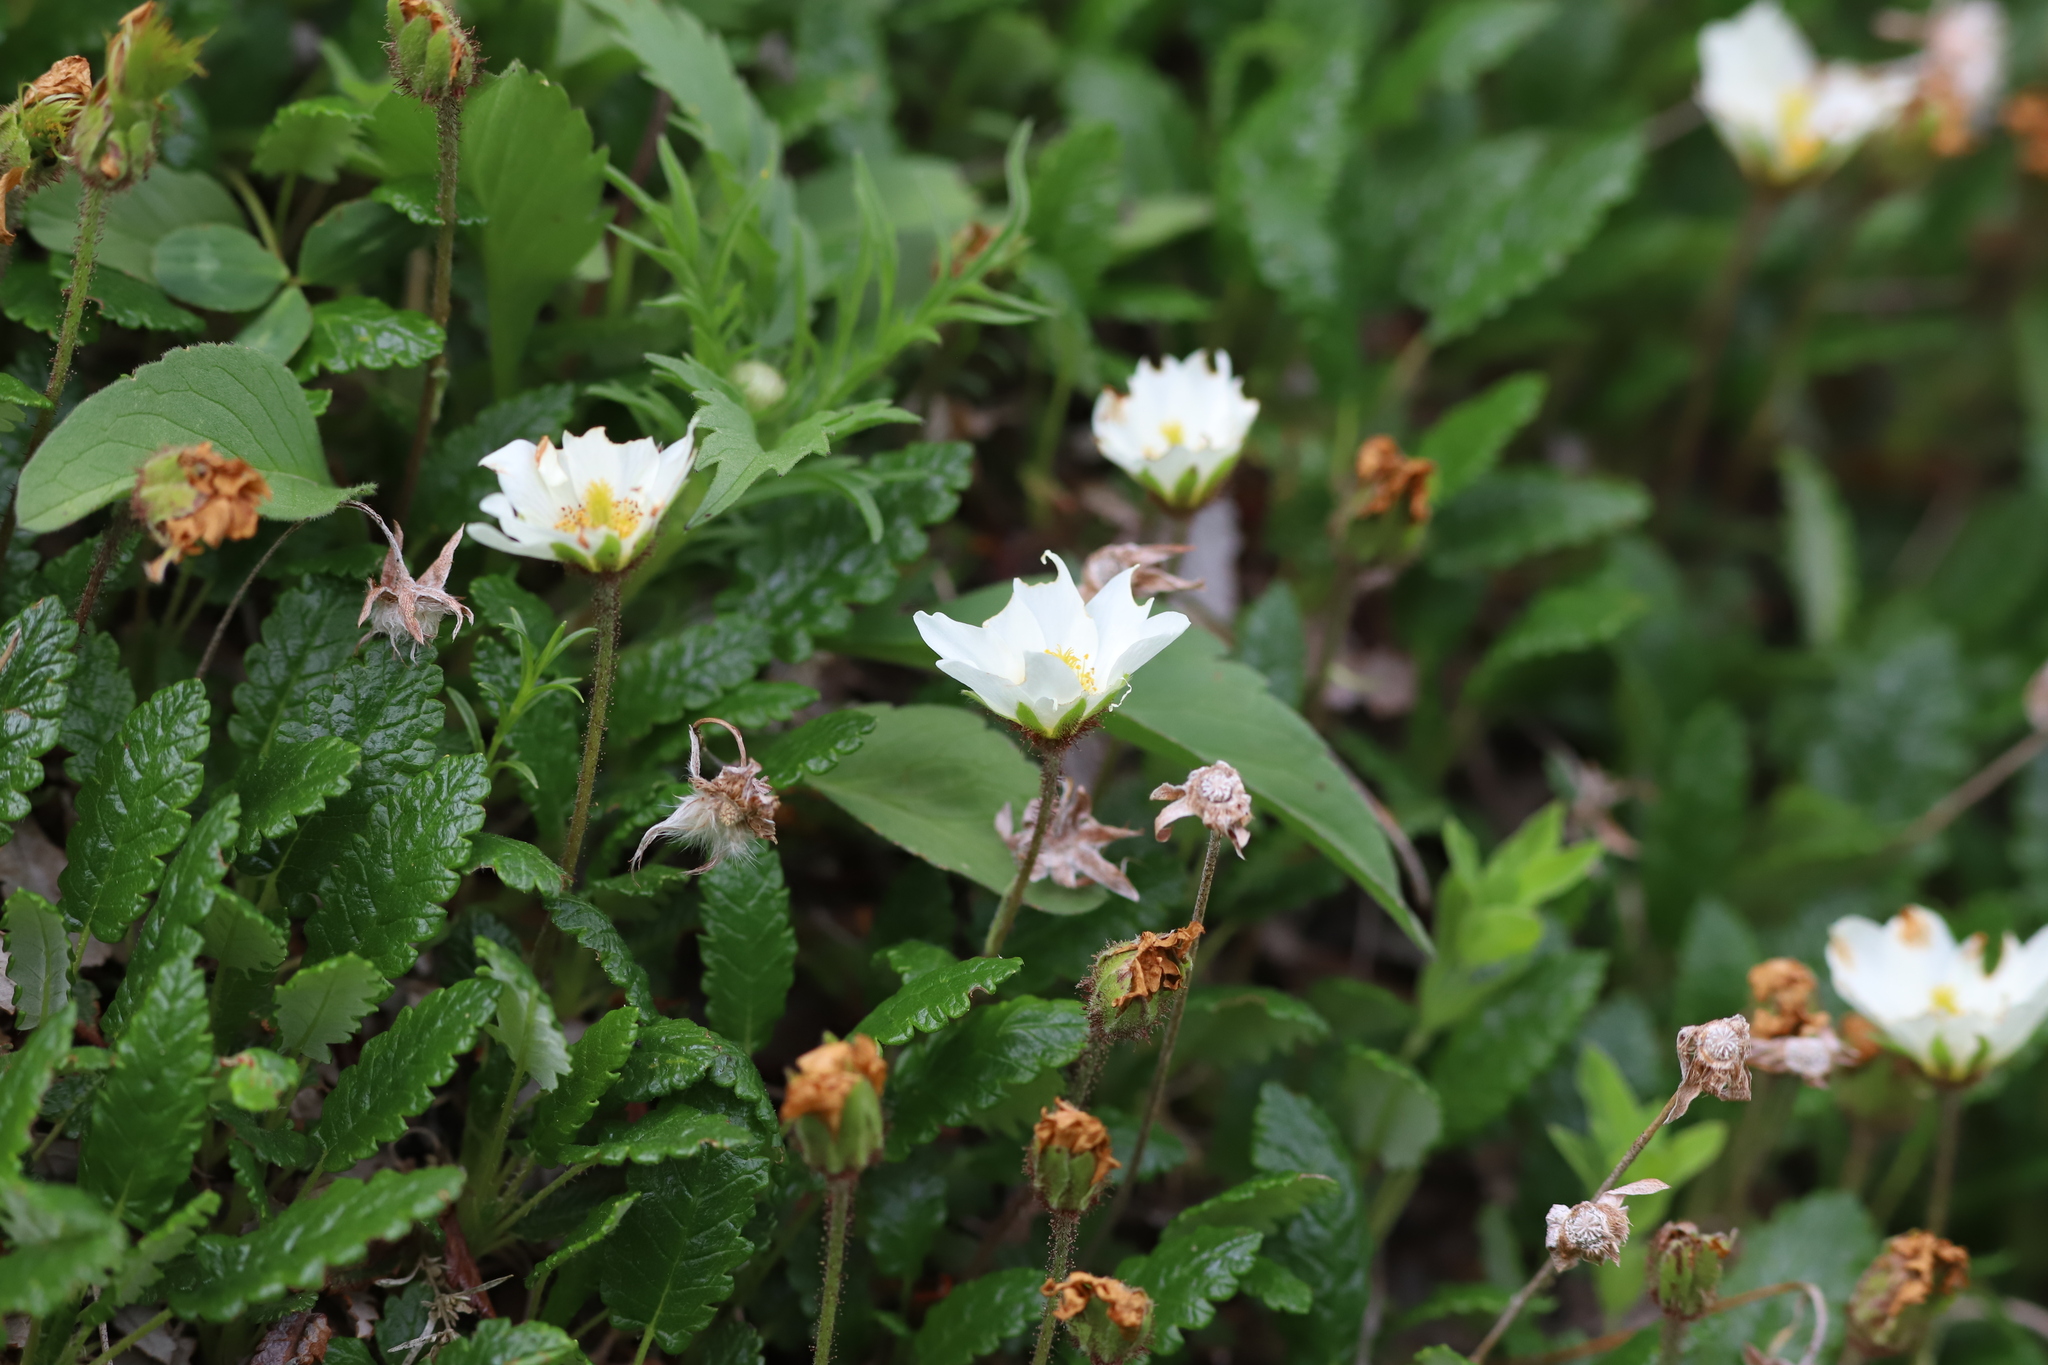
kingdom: Plantae
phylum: Tracheophyta
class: Magnoliopsida
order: Rosales
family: Rosaceae
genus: Dryas
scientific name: Dryas octopetala
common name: Eight-petal mountain-avens
